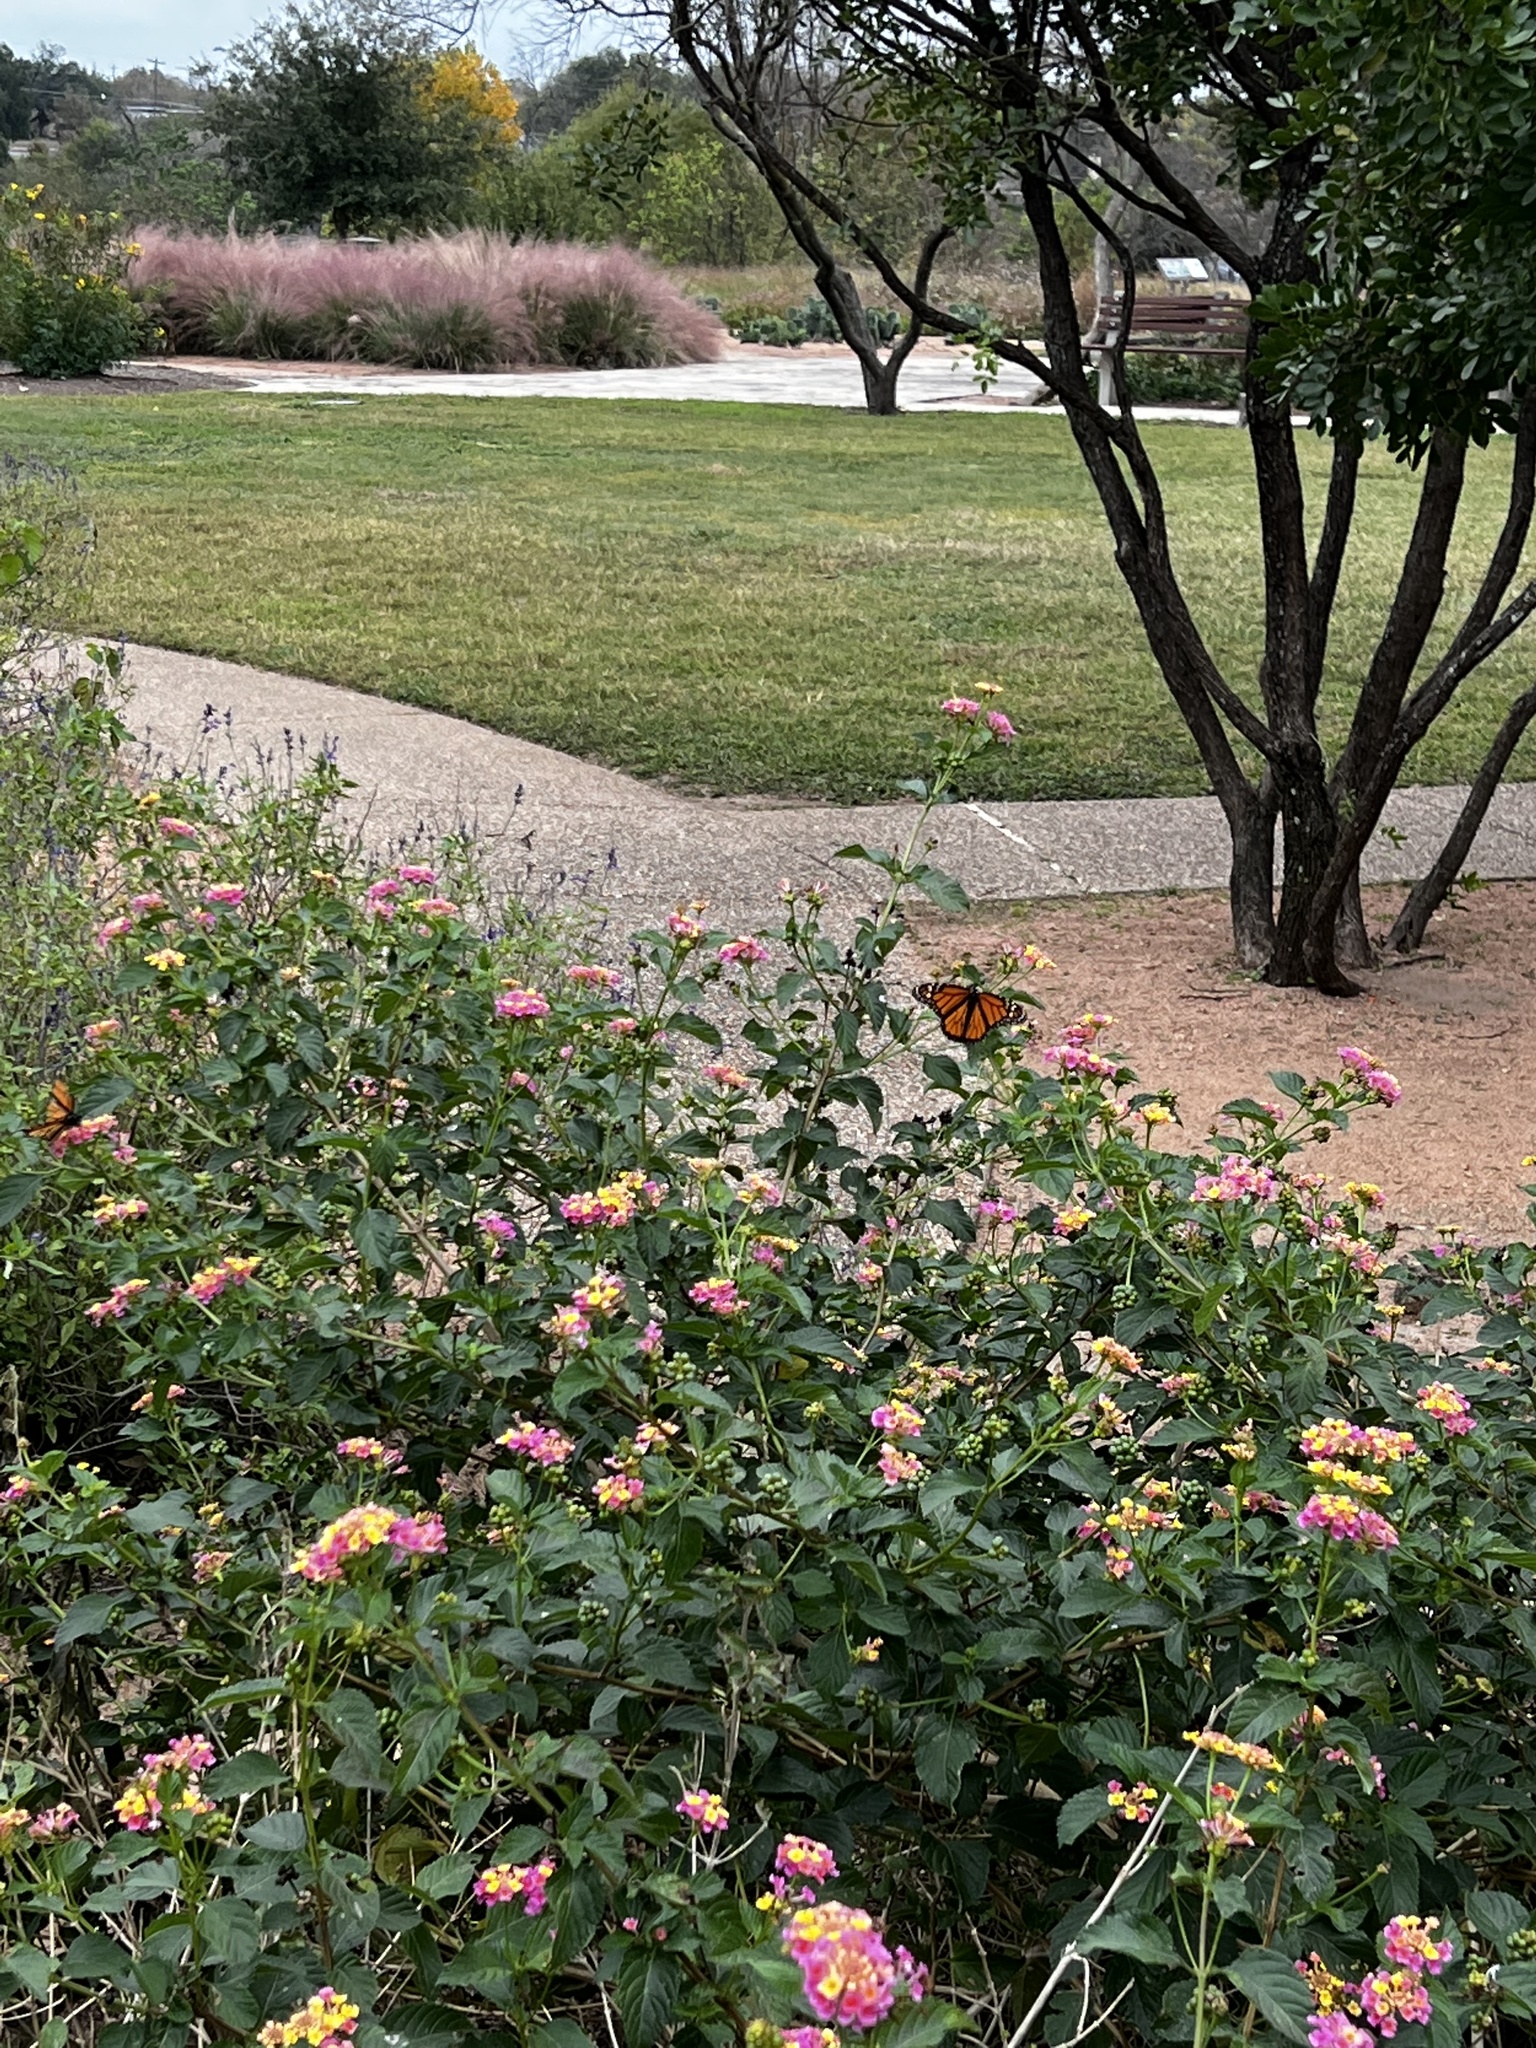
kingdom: Animalia
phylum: Arthropoda
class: Insecta
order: Lepidoptera
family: Nymphalidae
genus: Danaus
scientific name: Danaus plexippus
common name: Monarch
